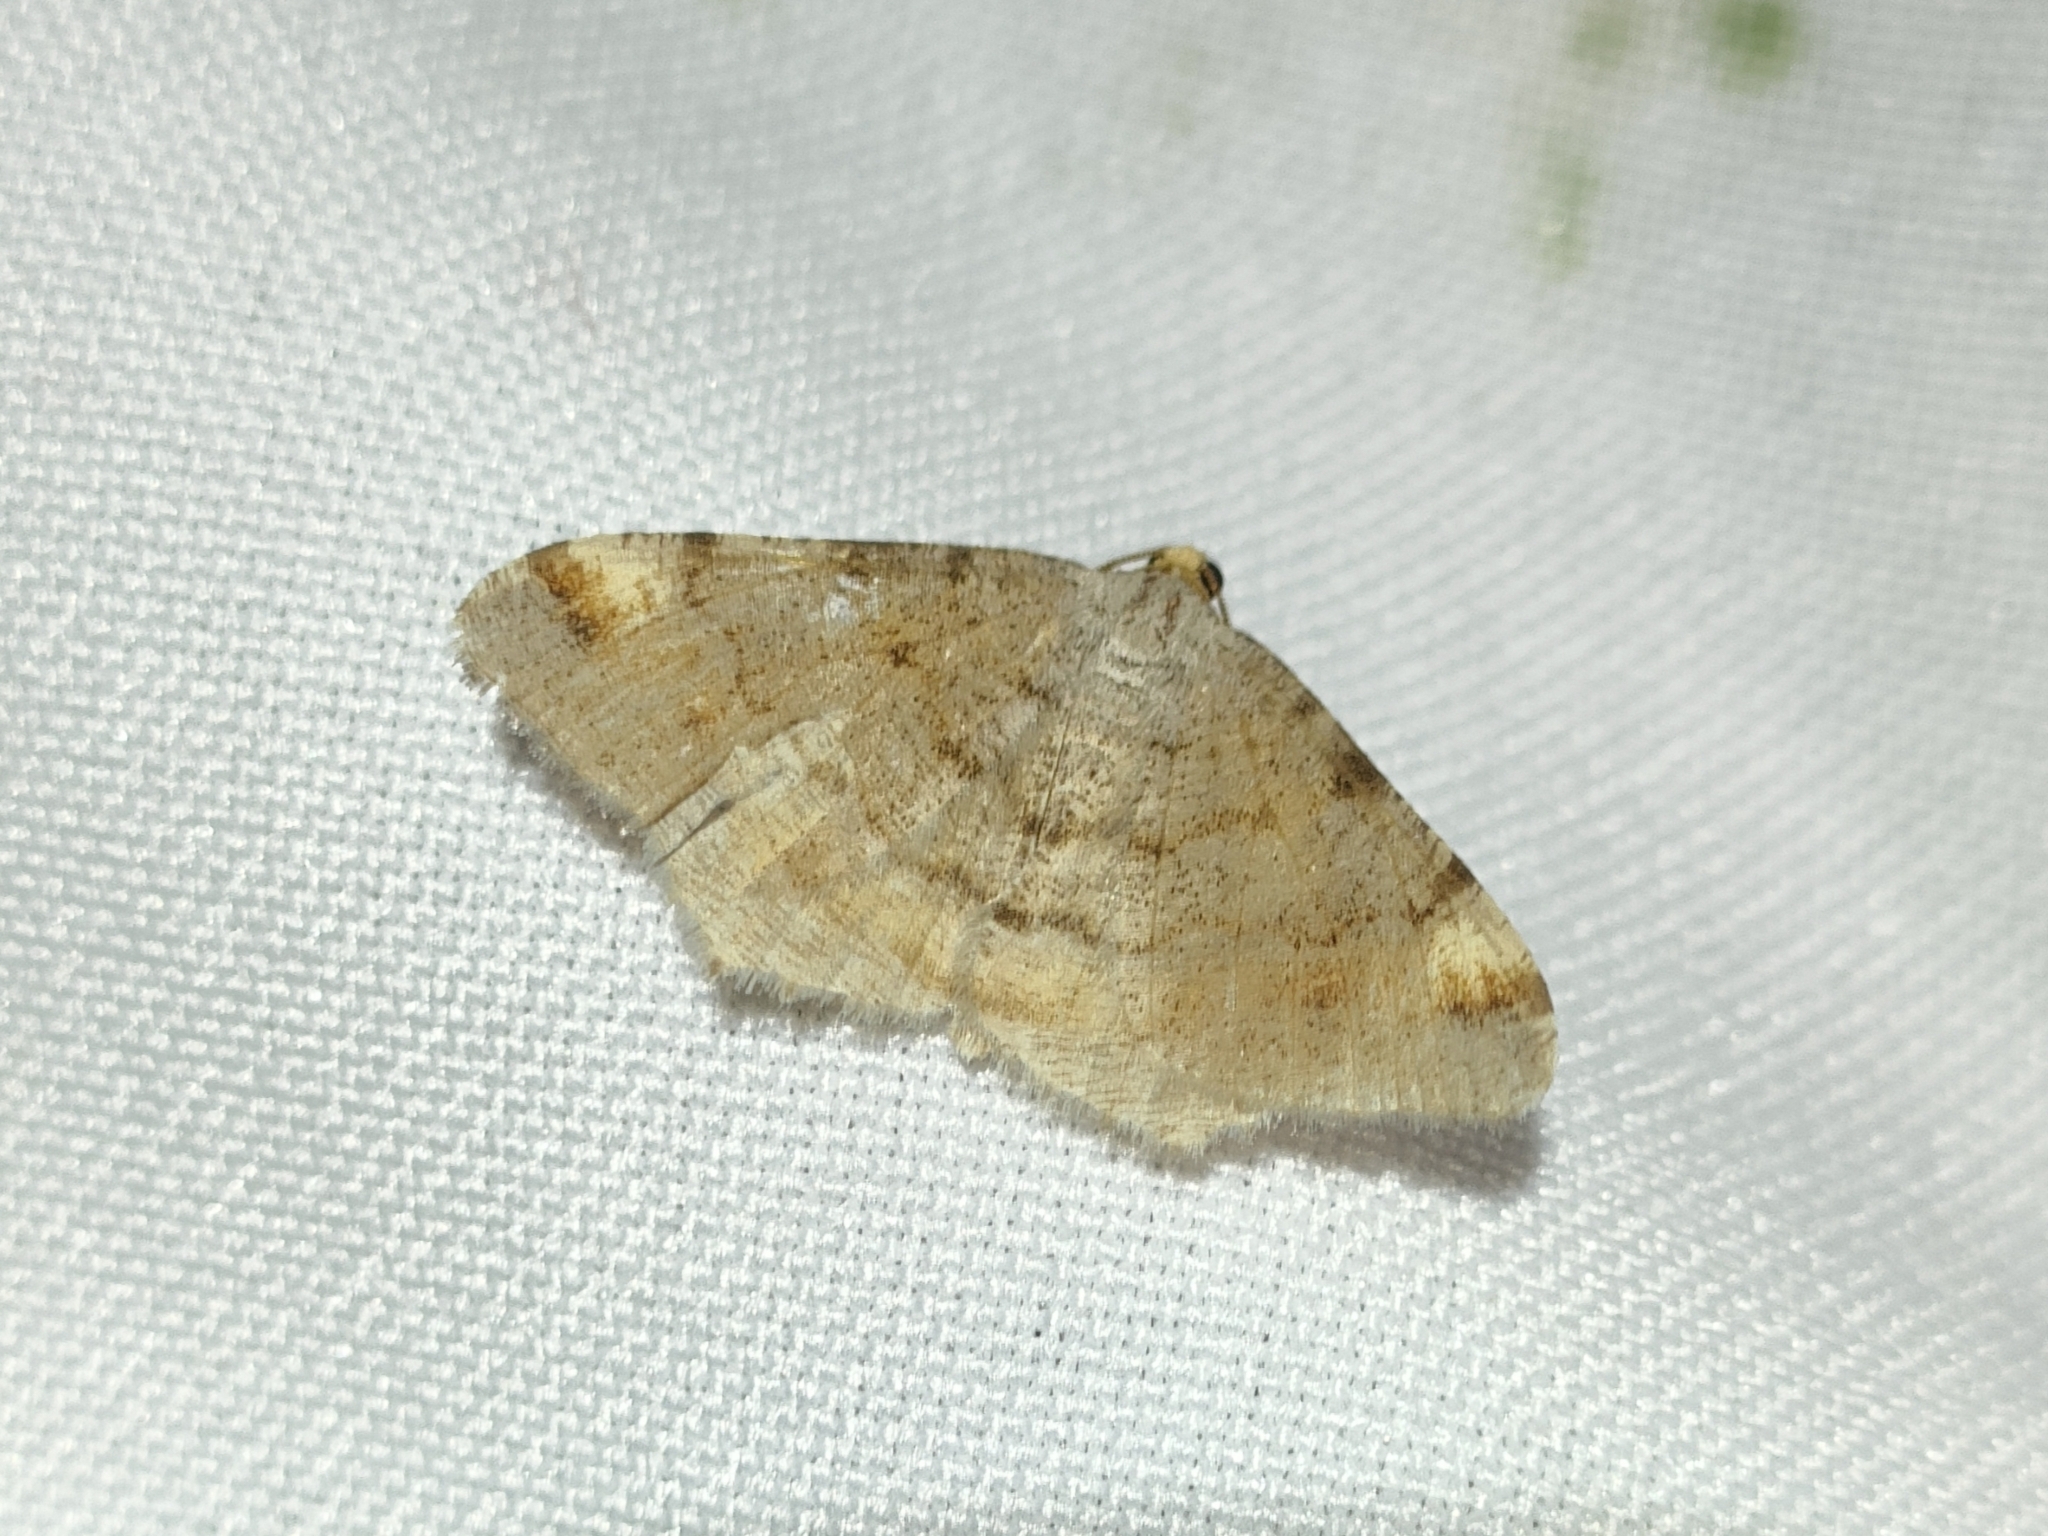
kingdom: Animalia
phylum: Arthropoda
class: Insecta
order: Lepidoptera
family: Geometridae
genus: Macaria
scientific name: Macaria liturata
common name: Tawny-barred angle
